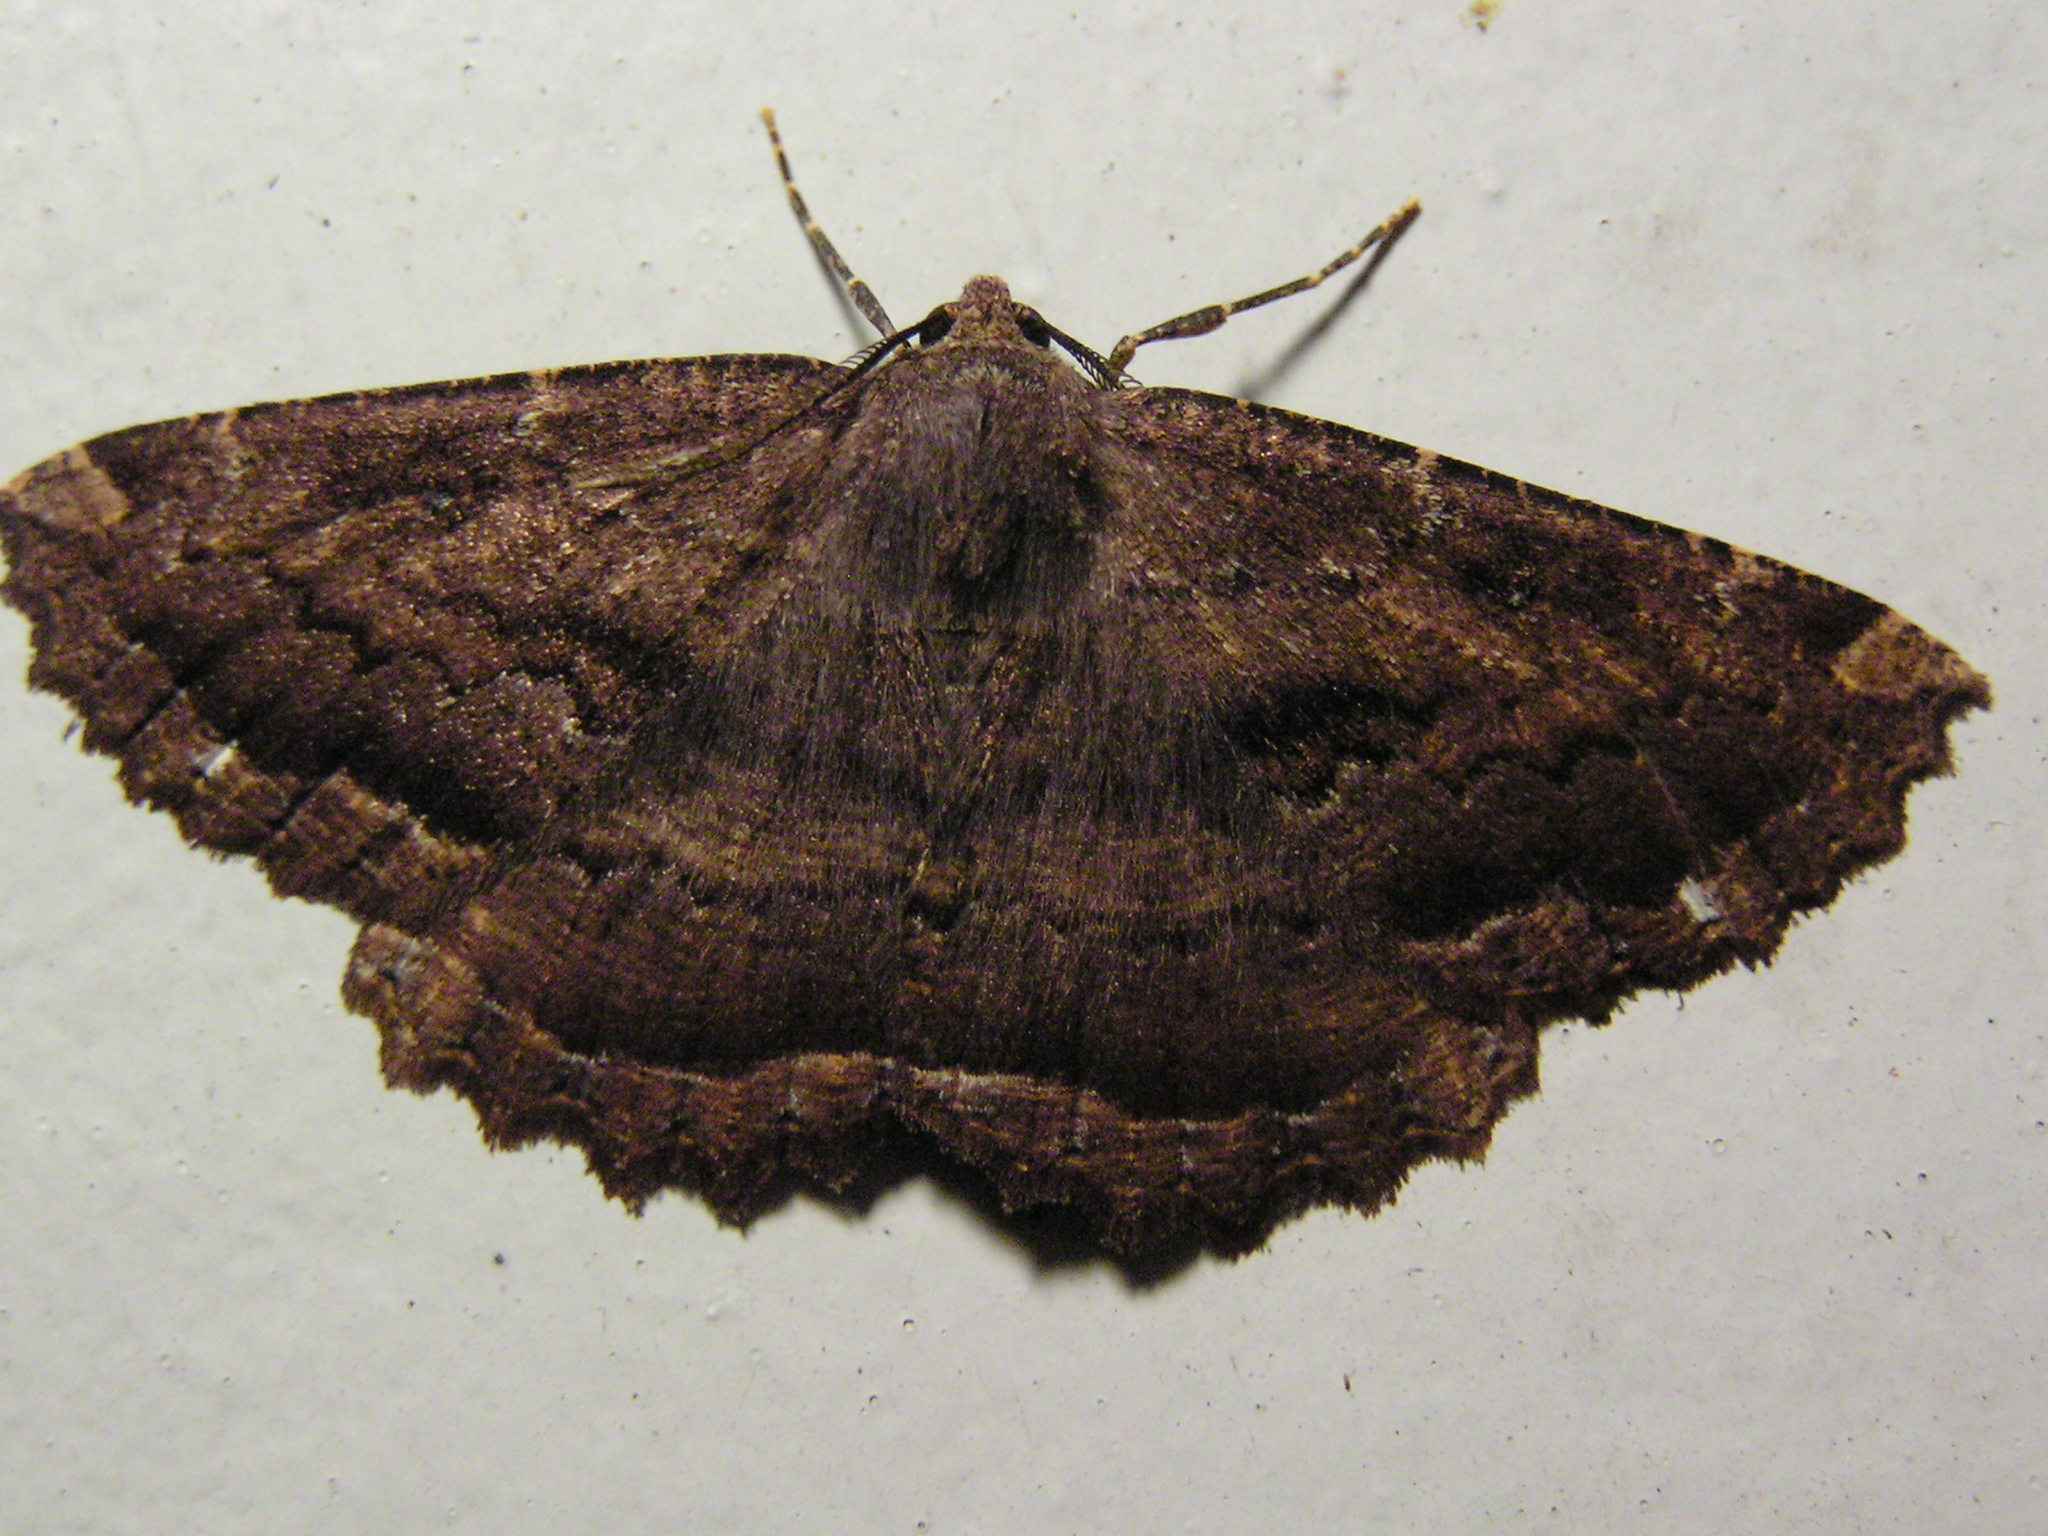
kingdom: Animalia
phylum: Arthropoda
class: Insecta
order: Lepidoptera
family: Geometridae
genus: Gellonia
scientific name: Gellonia dejectaria
